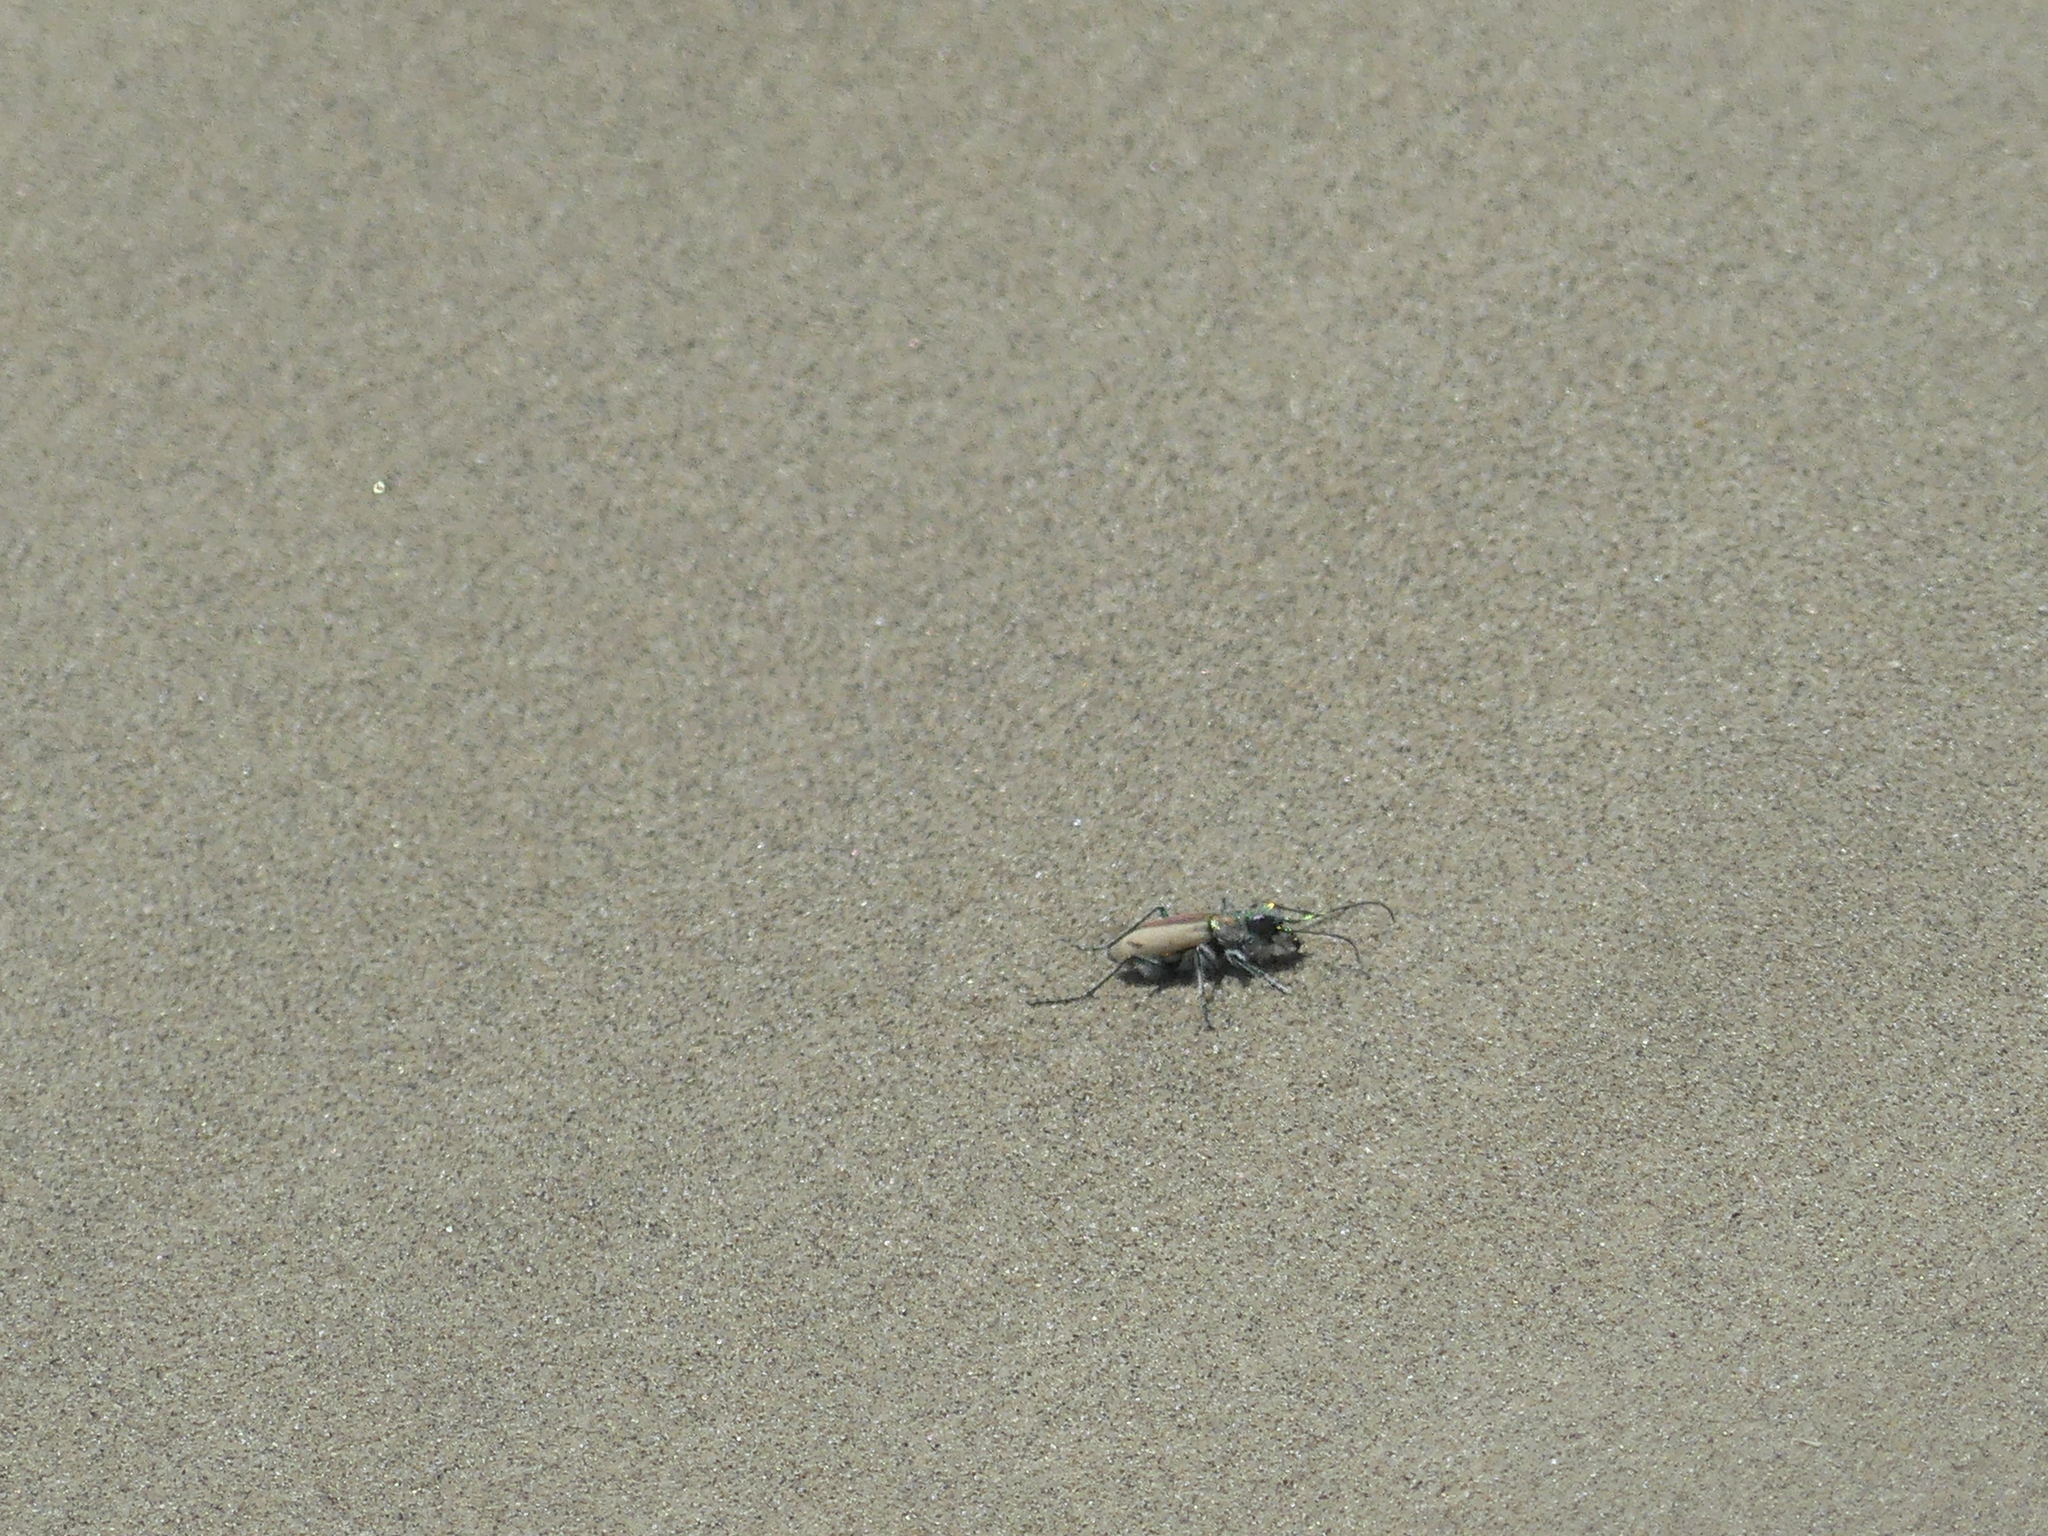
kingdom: Animalia
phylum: Arthropoda
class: Insecta
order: Coleoptera
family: Carabidae
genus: Cicindela
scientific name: Cicindela limbata
